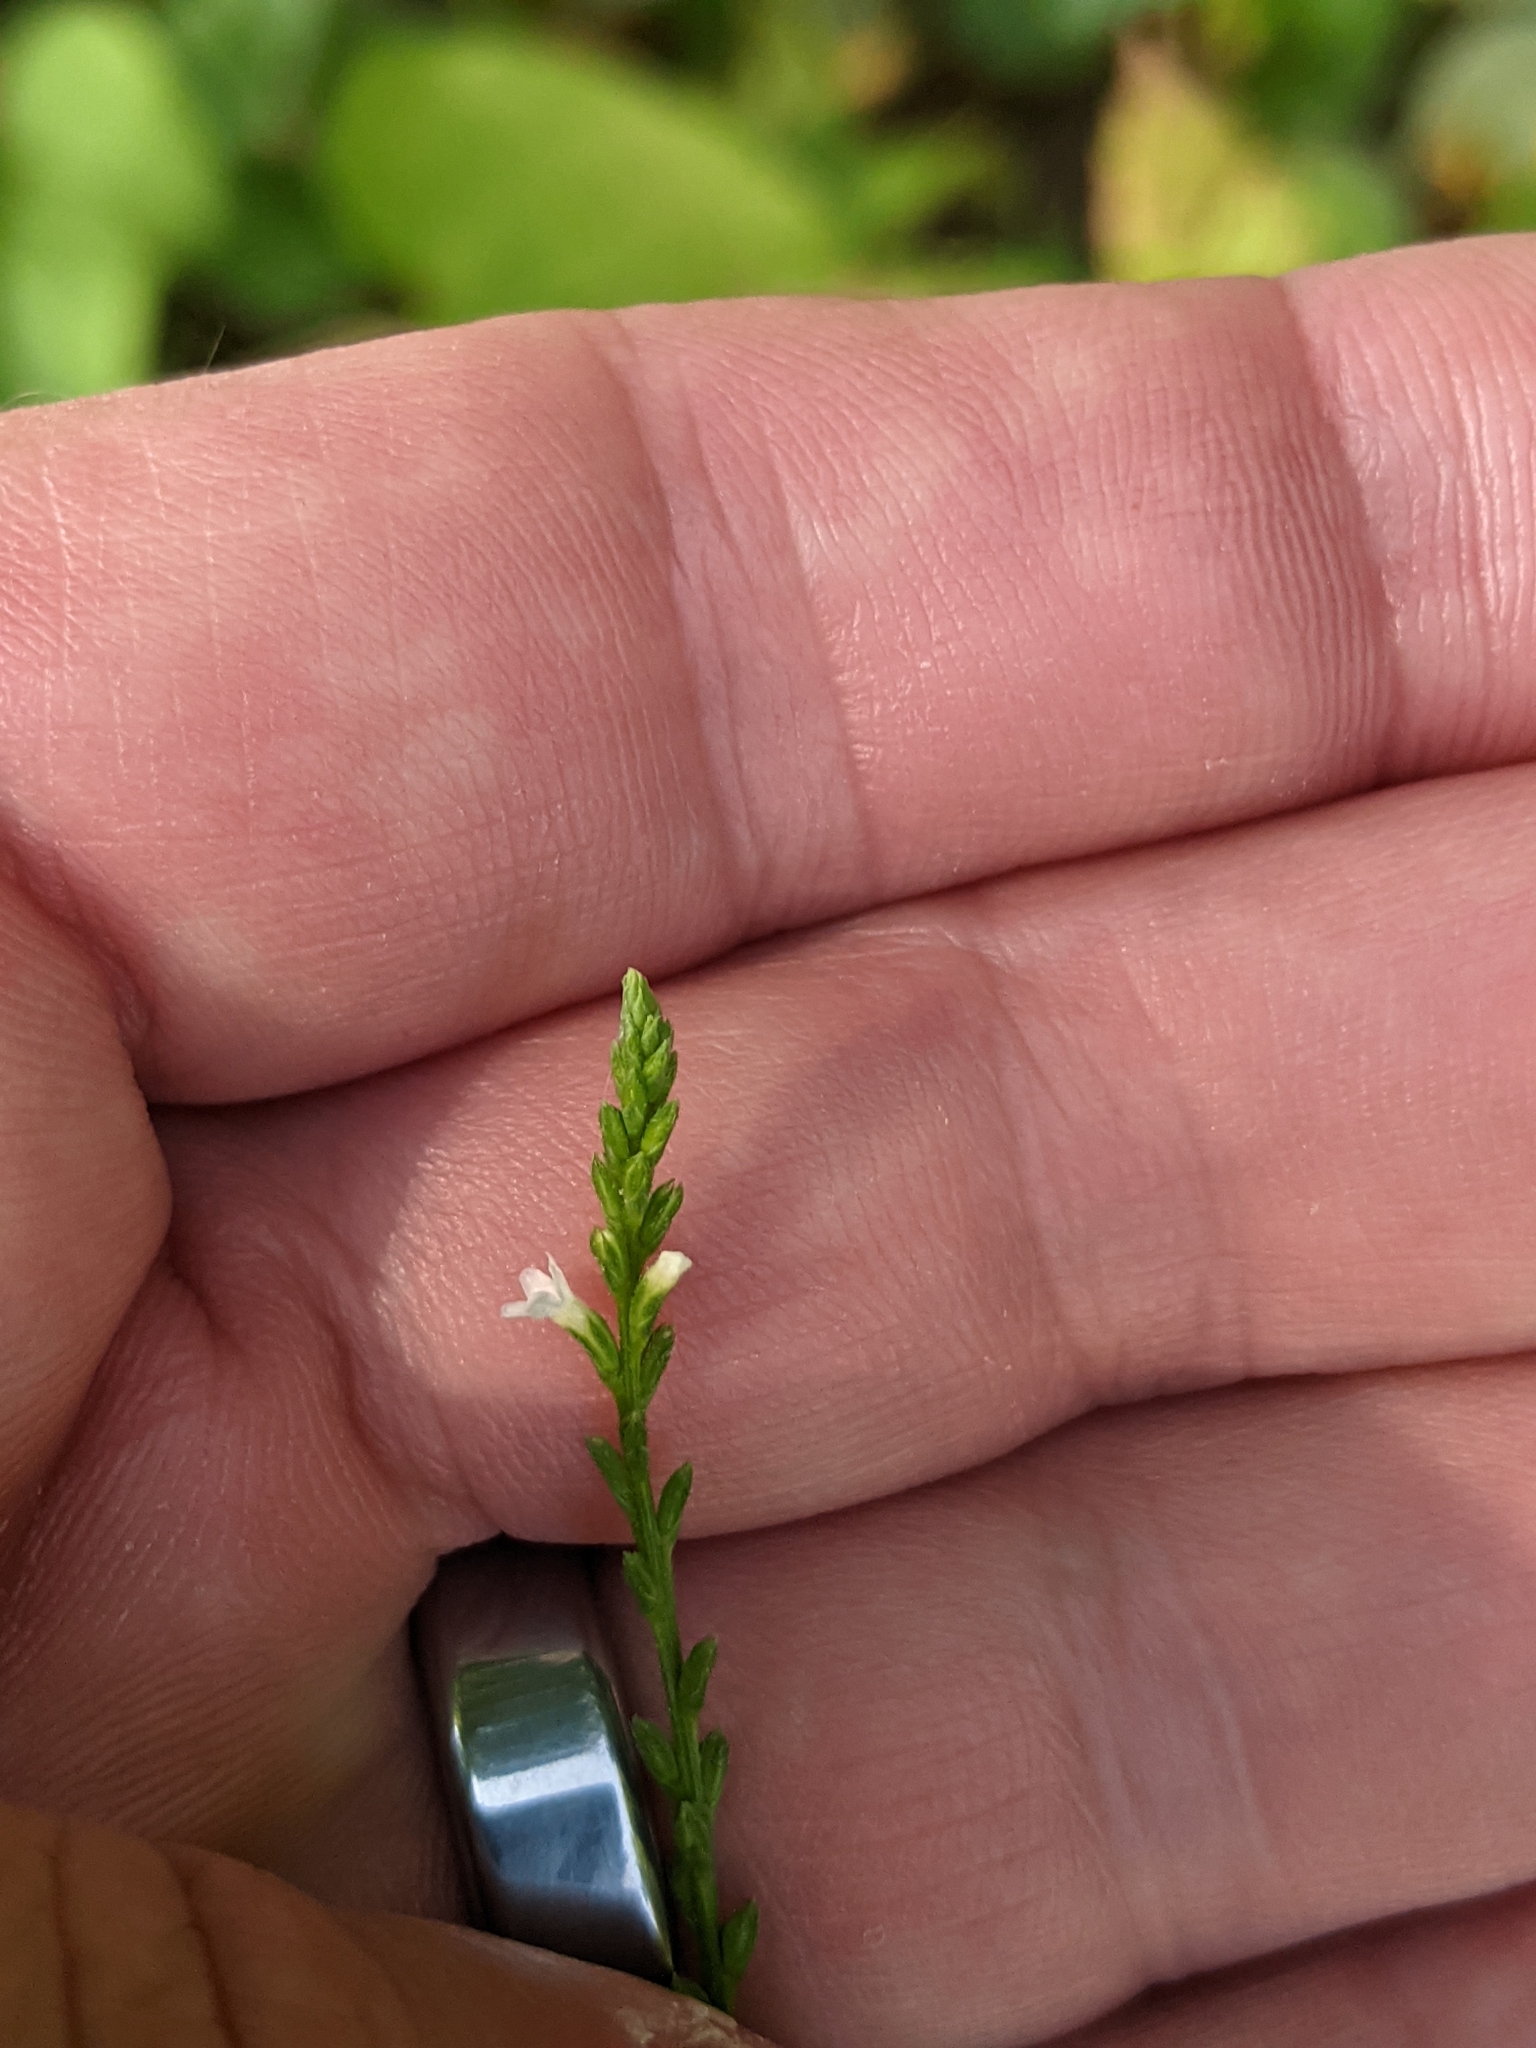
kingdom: Plantae
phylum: Tracheophyta
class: Magnoliopsida
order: Lamiales
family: Verbenaceae
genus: Verbena
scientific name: Verbena urticifolia
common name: Nettle-leaved vervain
